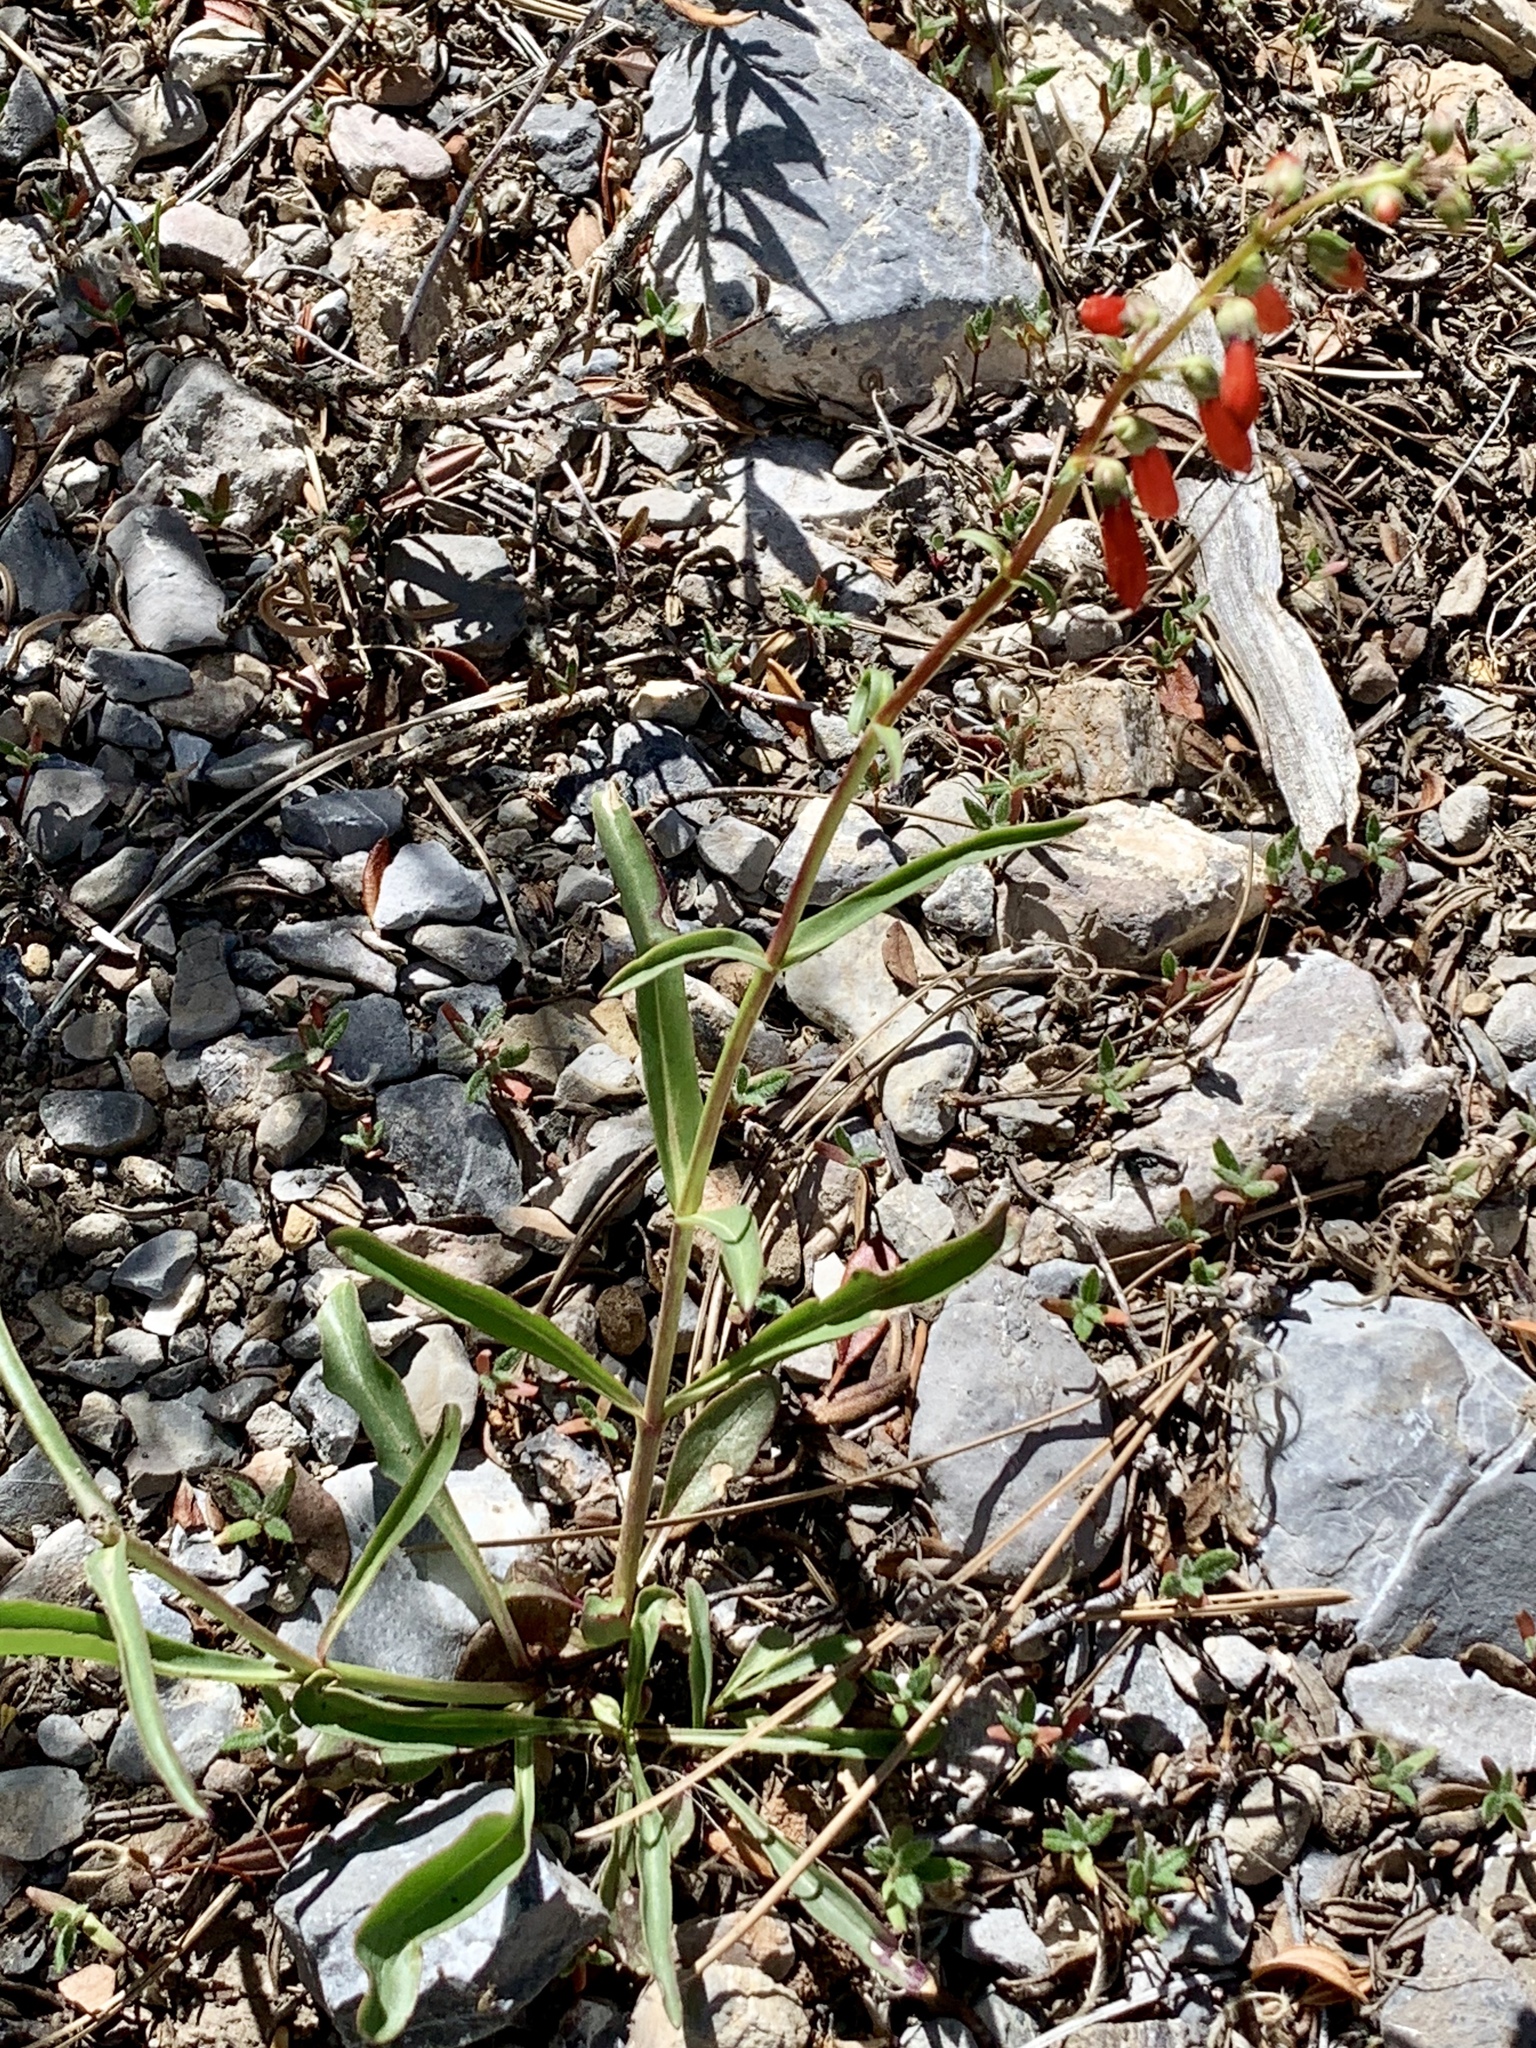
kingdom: Plantae
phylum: Tracheophyta
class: Magnoliopsida
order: Lamiales
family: Plantaginaceae
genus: Penstemon
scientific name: Penstemon eatonii
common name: Eaton's penstemon
